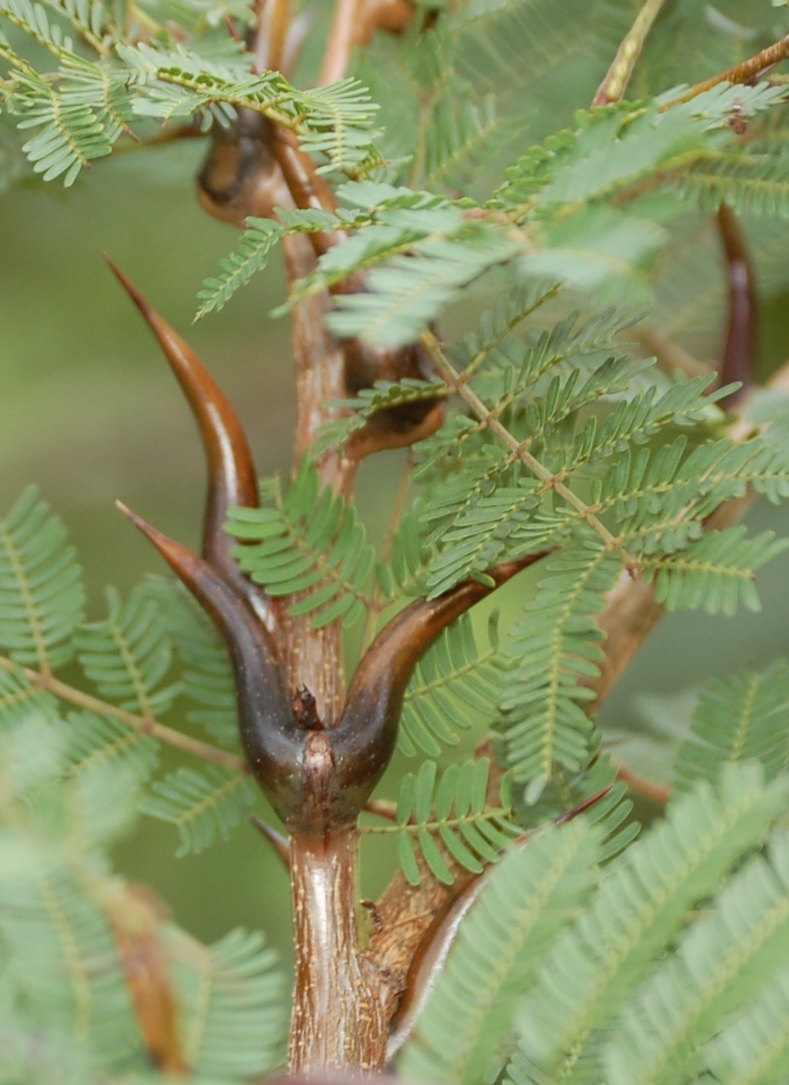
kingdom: Plantae
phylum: Tracheophyta
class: Magnoliopsida
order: Fabales
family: Fabaceae
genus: Vachellia
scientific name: Vachellia cornigera
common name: Bullhorn wattle
